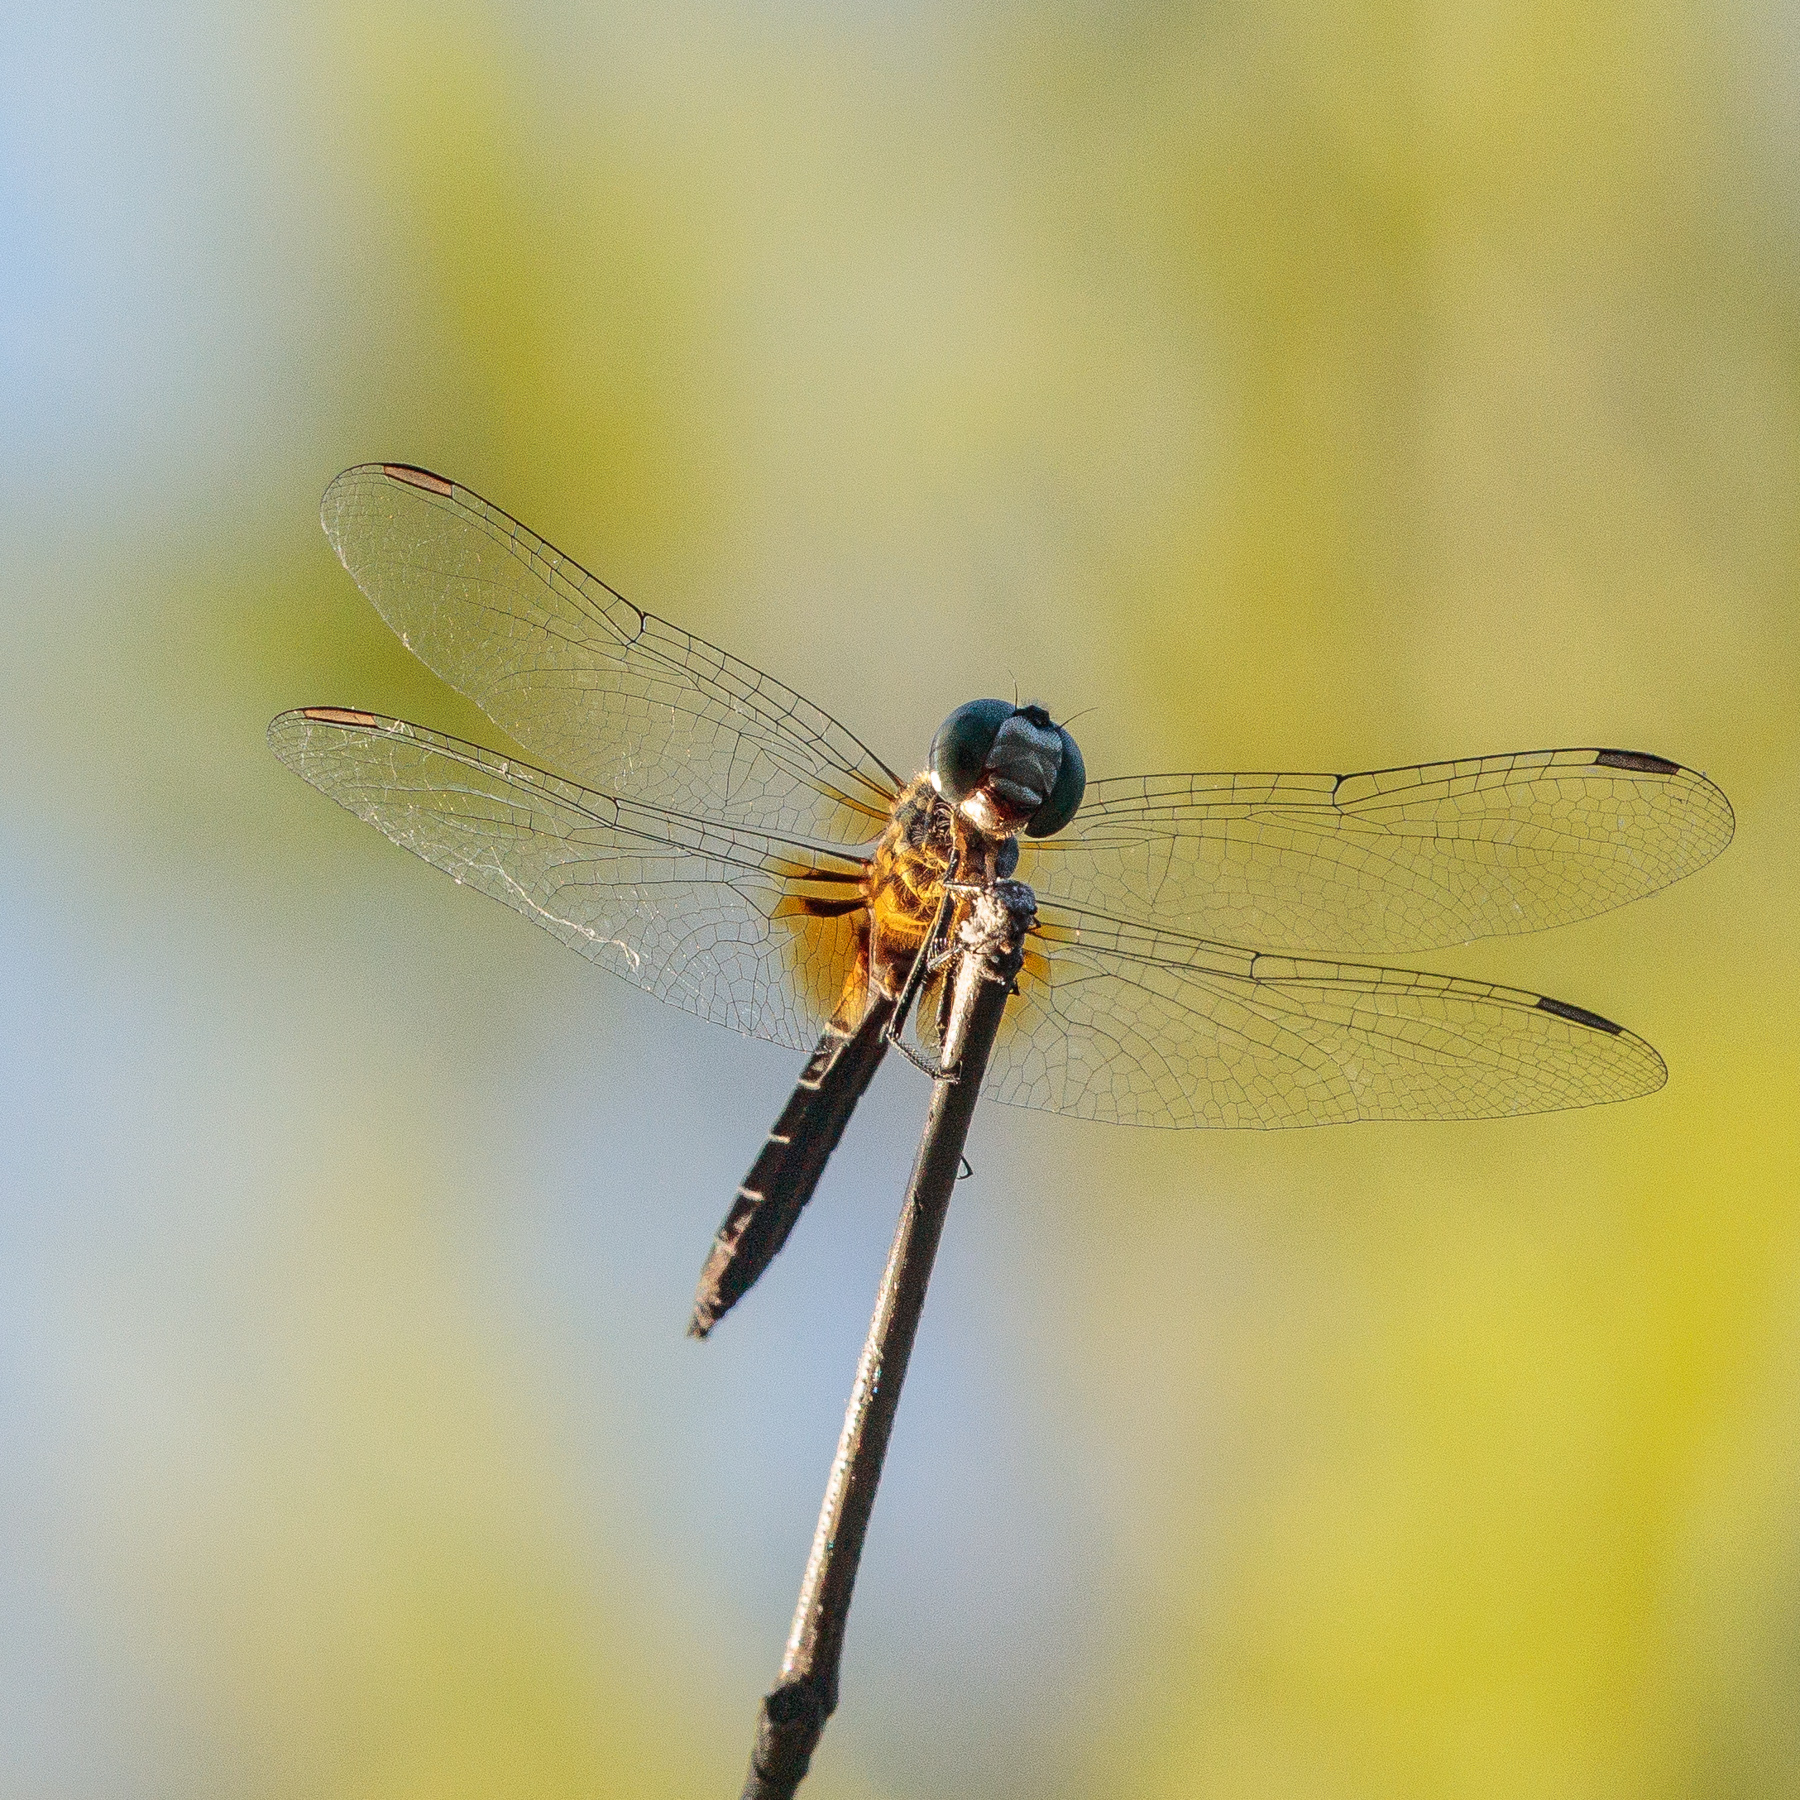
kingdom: Animalia
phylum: Arthropoda
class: Insecta
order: Odonata
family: Libellulidae
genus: Pachydiplax
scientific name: Pachydiplax longipennis
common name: Blue dasher
